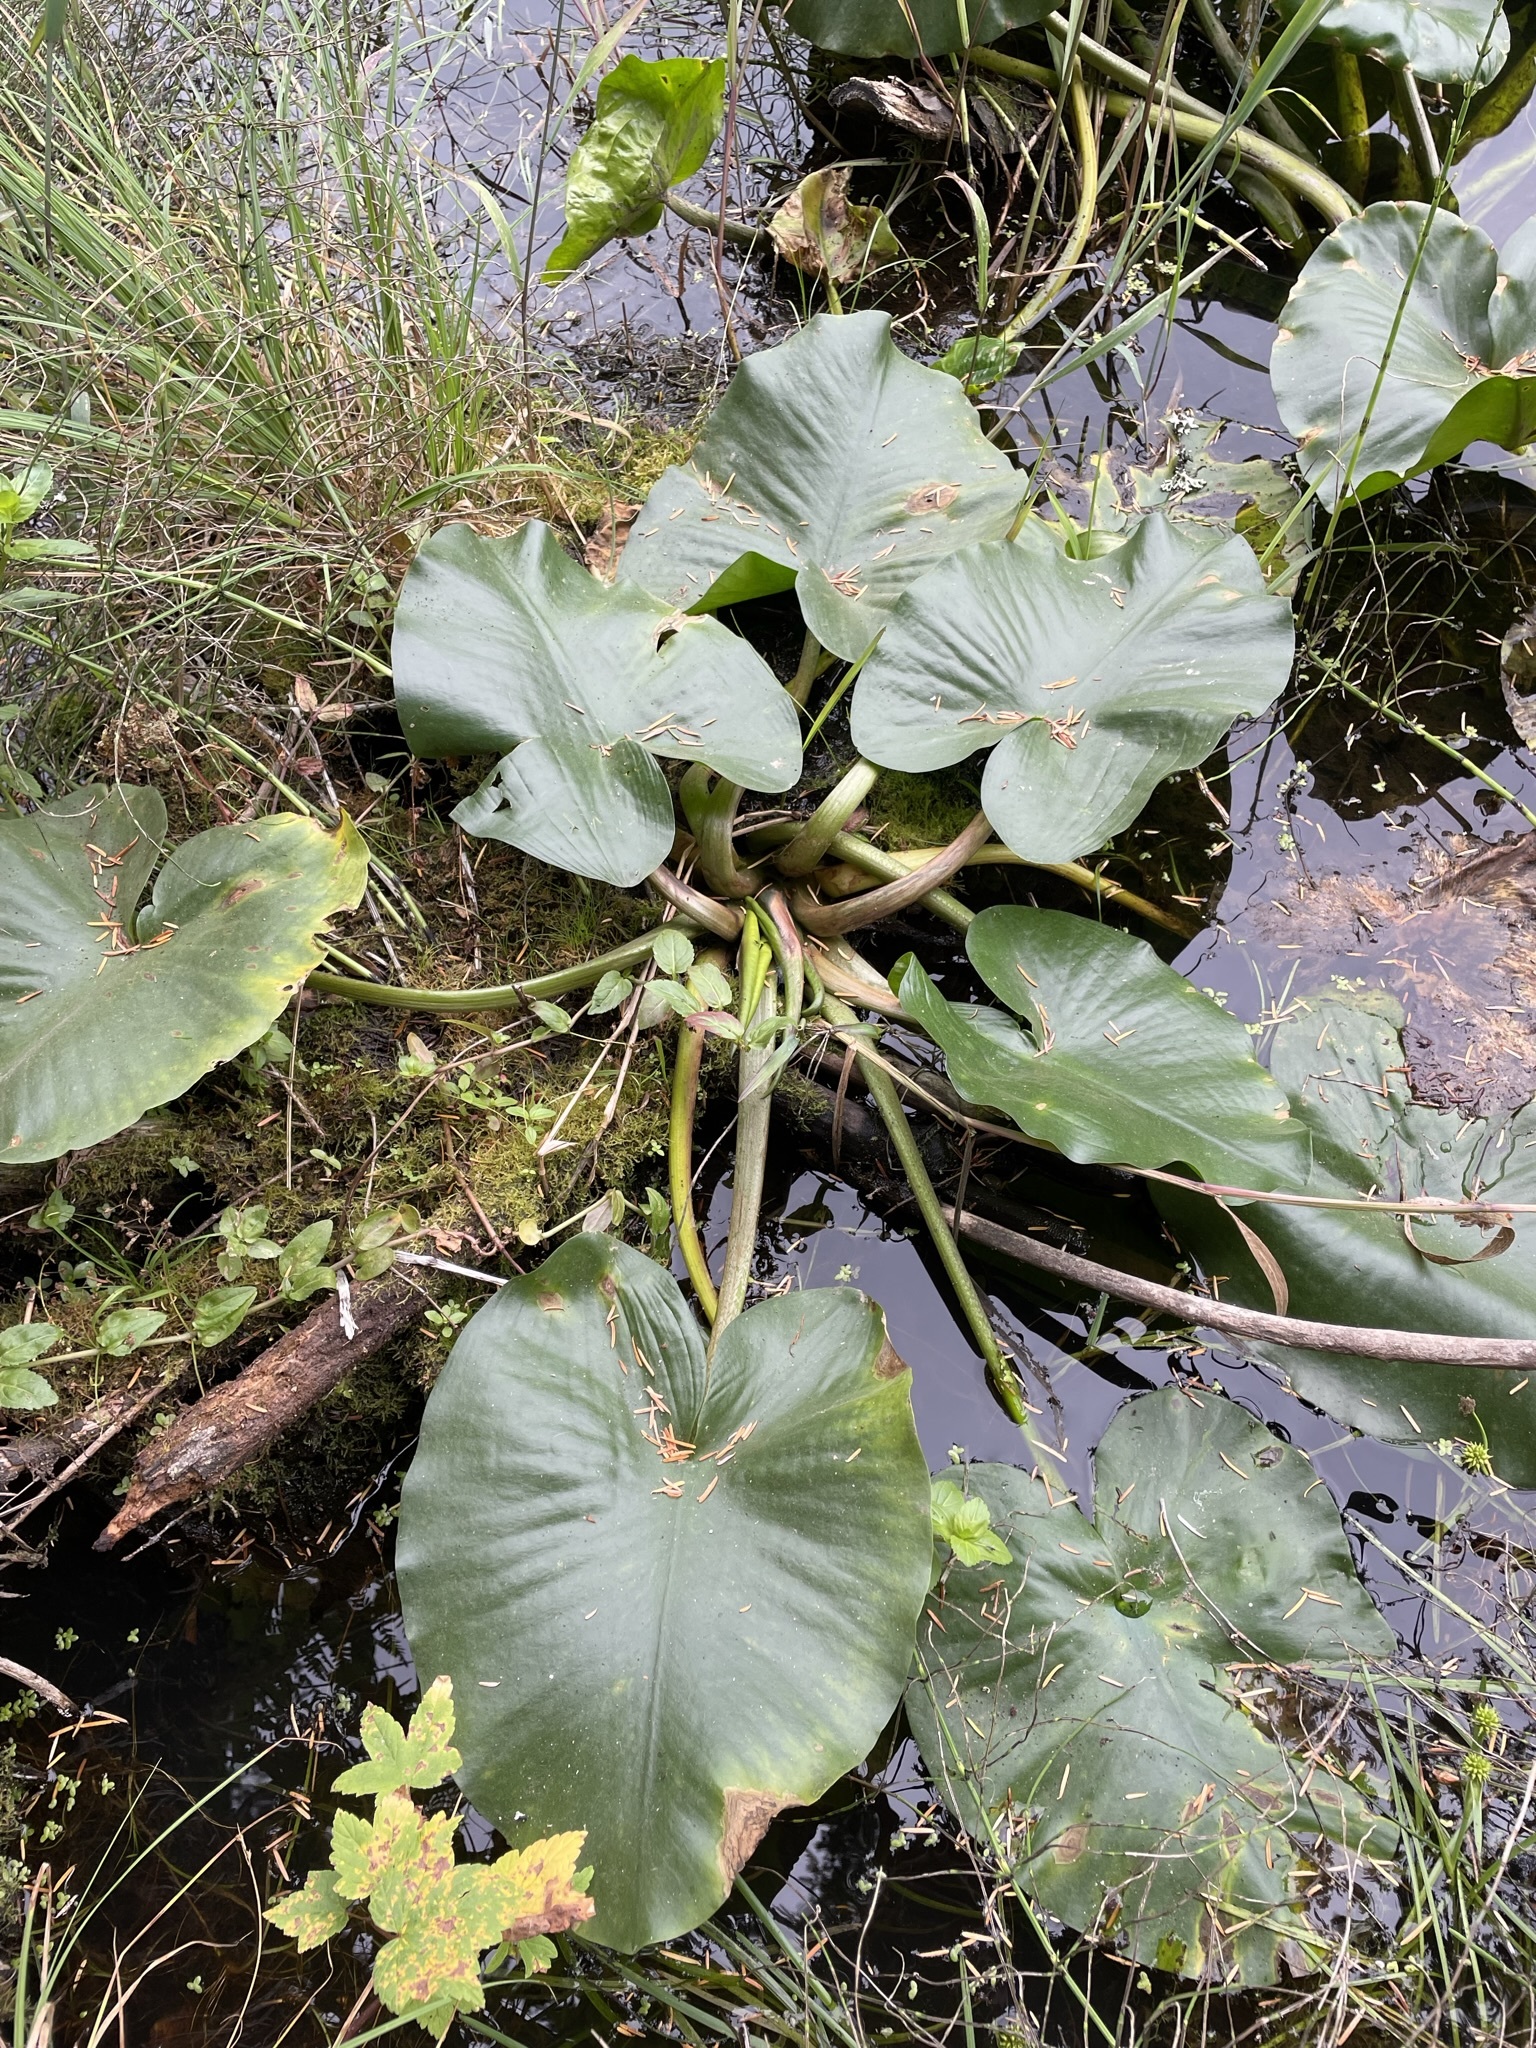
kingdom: Plantae
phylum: Tracheophyta
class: Magnoliopsida
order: Nymphaeales
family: Nymphaeaceae
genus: Nuphar
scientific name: Nuphar polysepala
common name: Rocky mountain cow-lily
